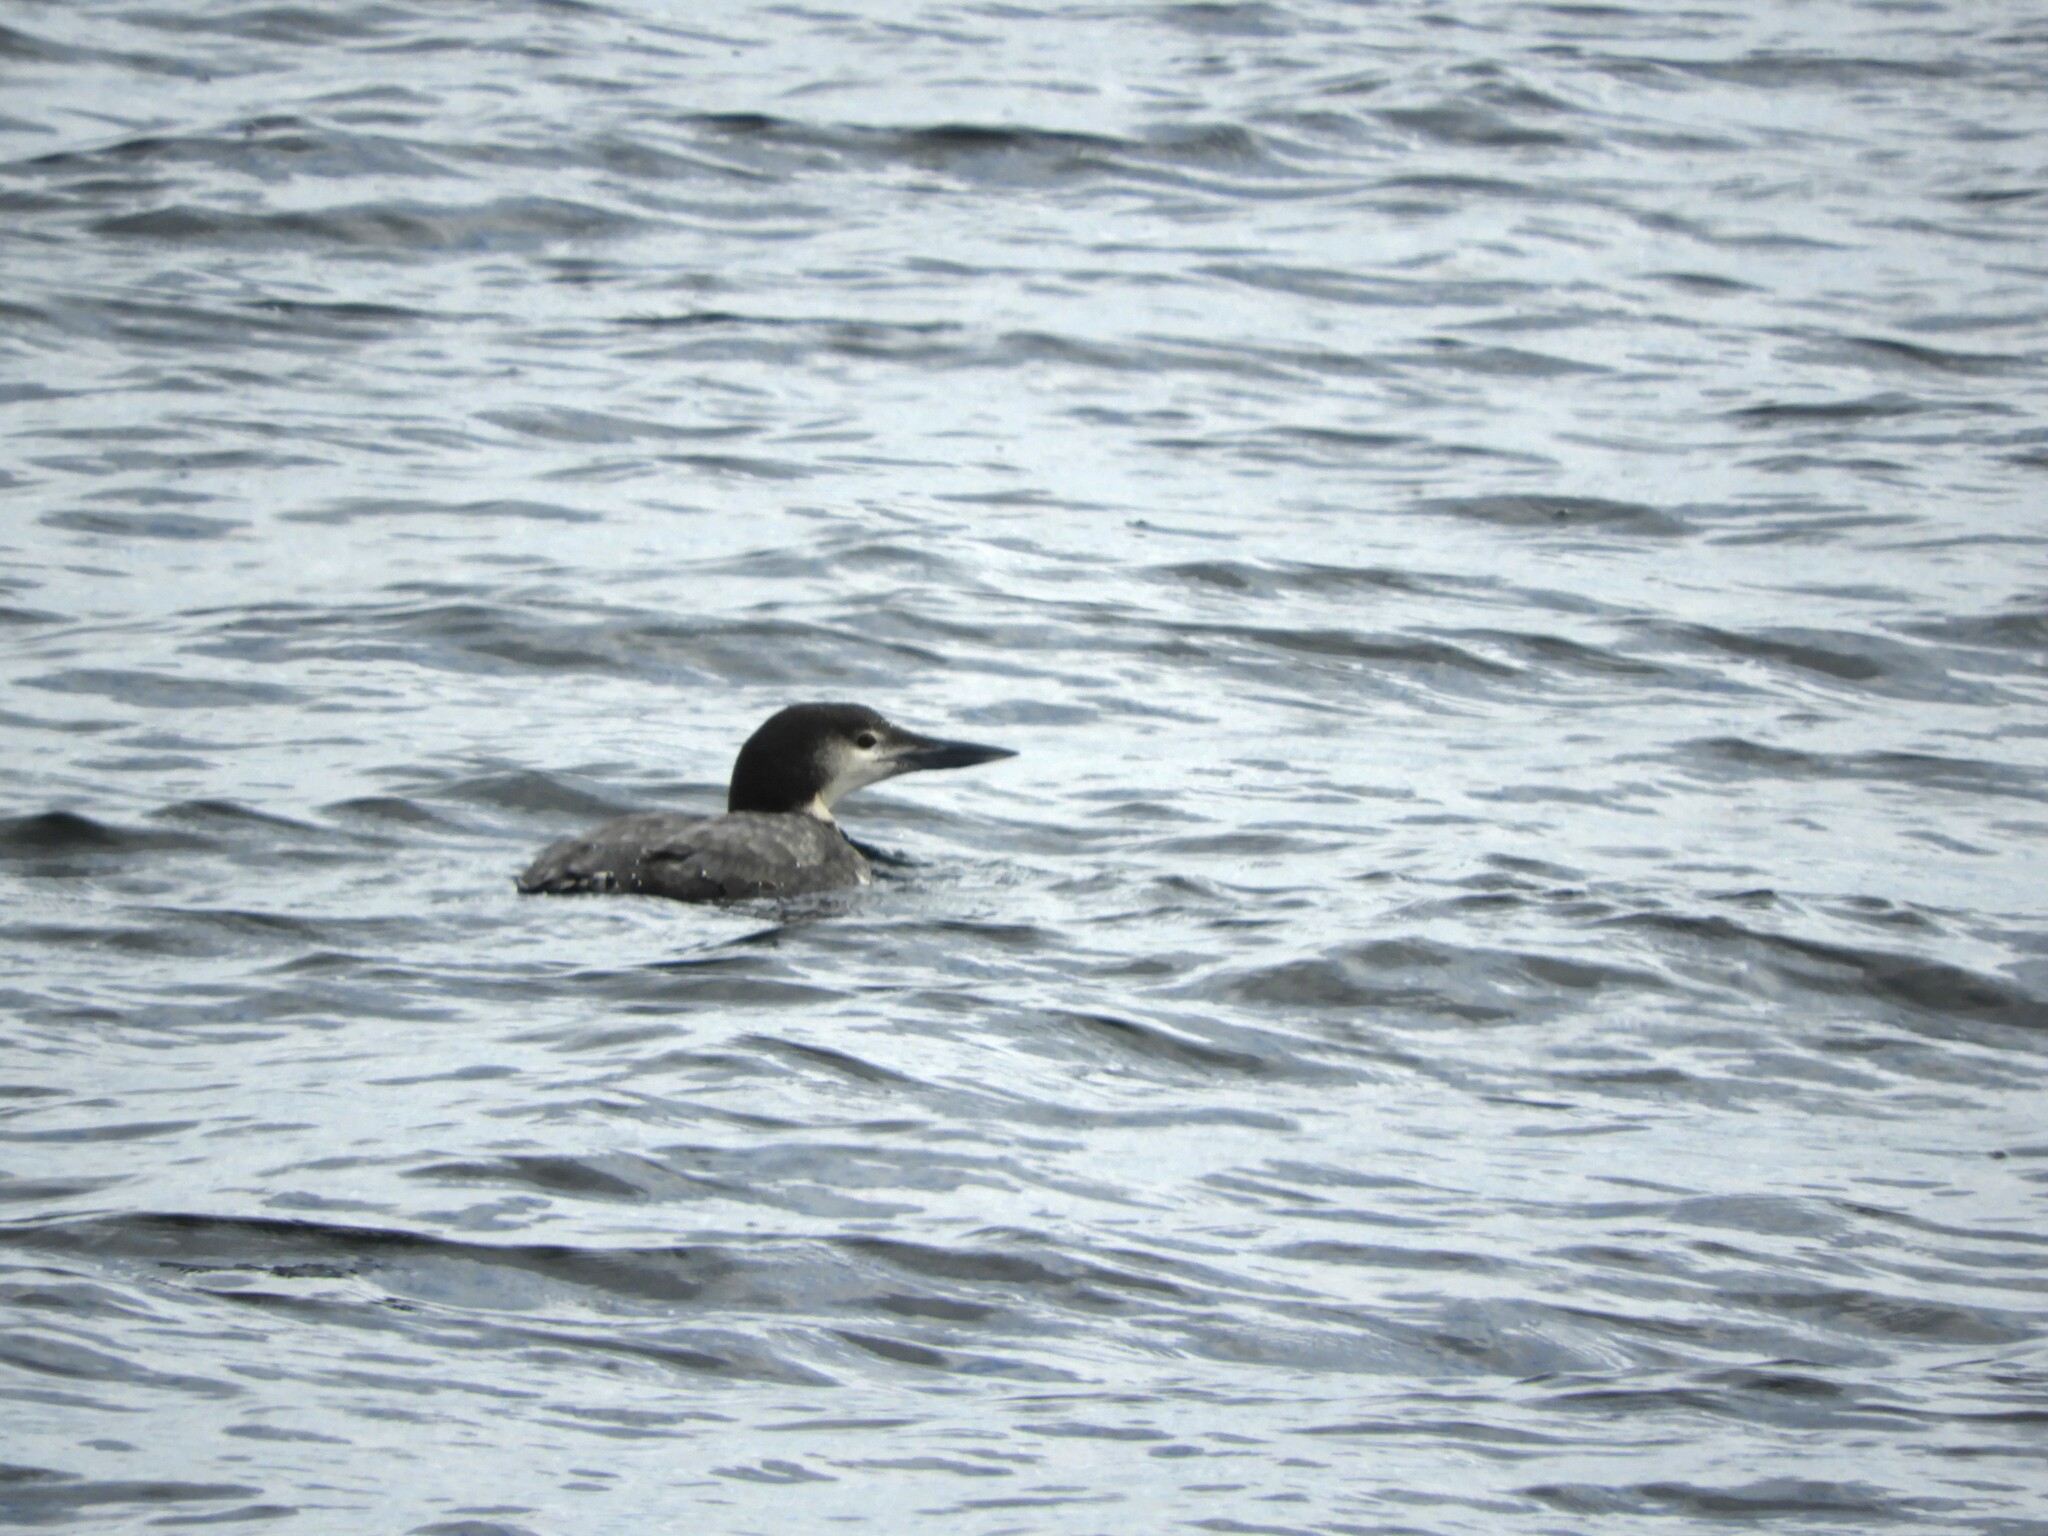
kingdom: Animalia
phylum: Chordata
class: Aves
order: Gaviiformes
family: Gaviidae
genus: Gavia
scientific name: Gavia immer
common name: Common loon
